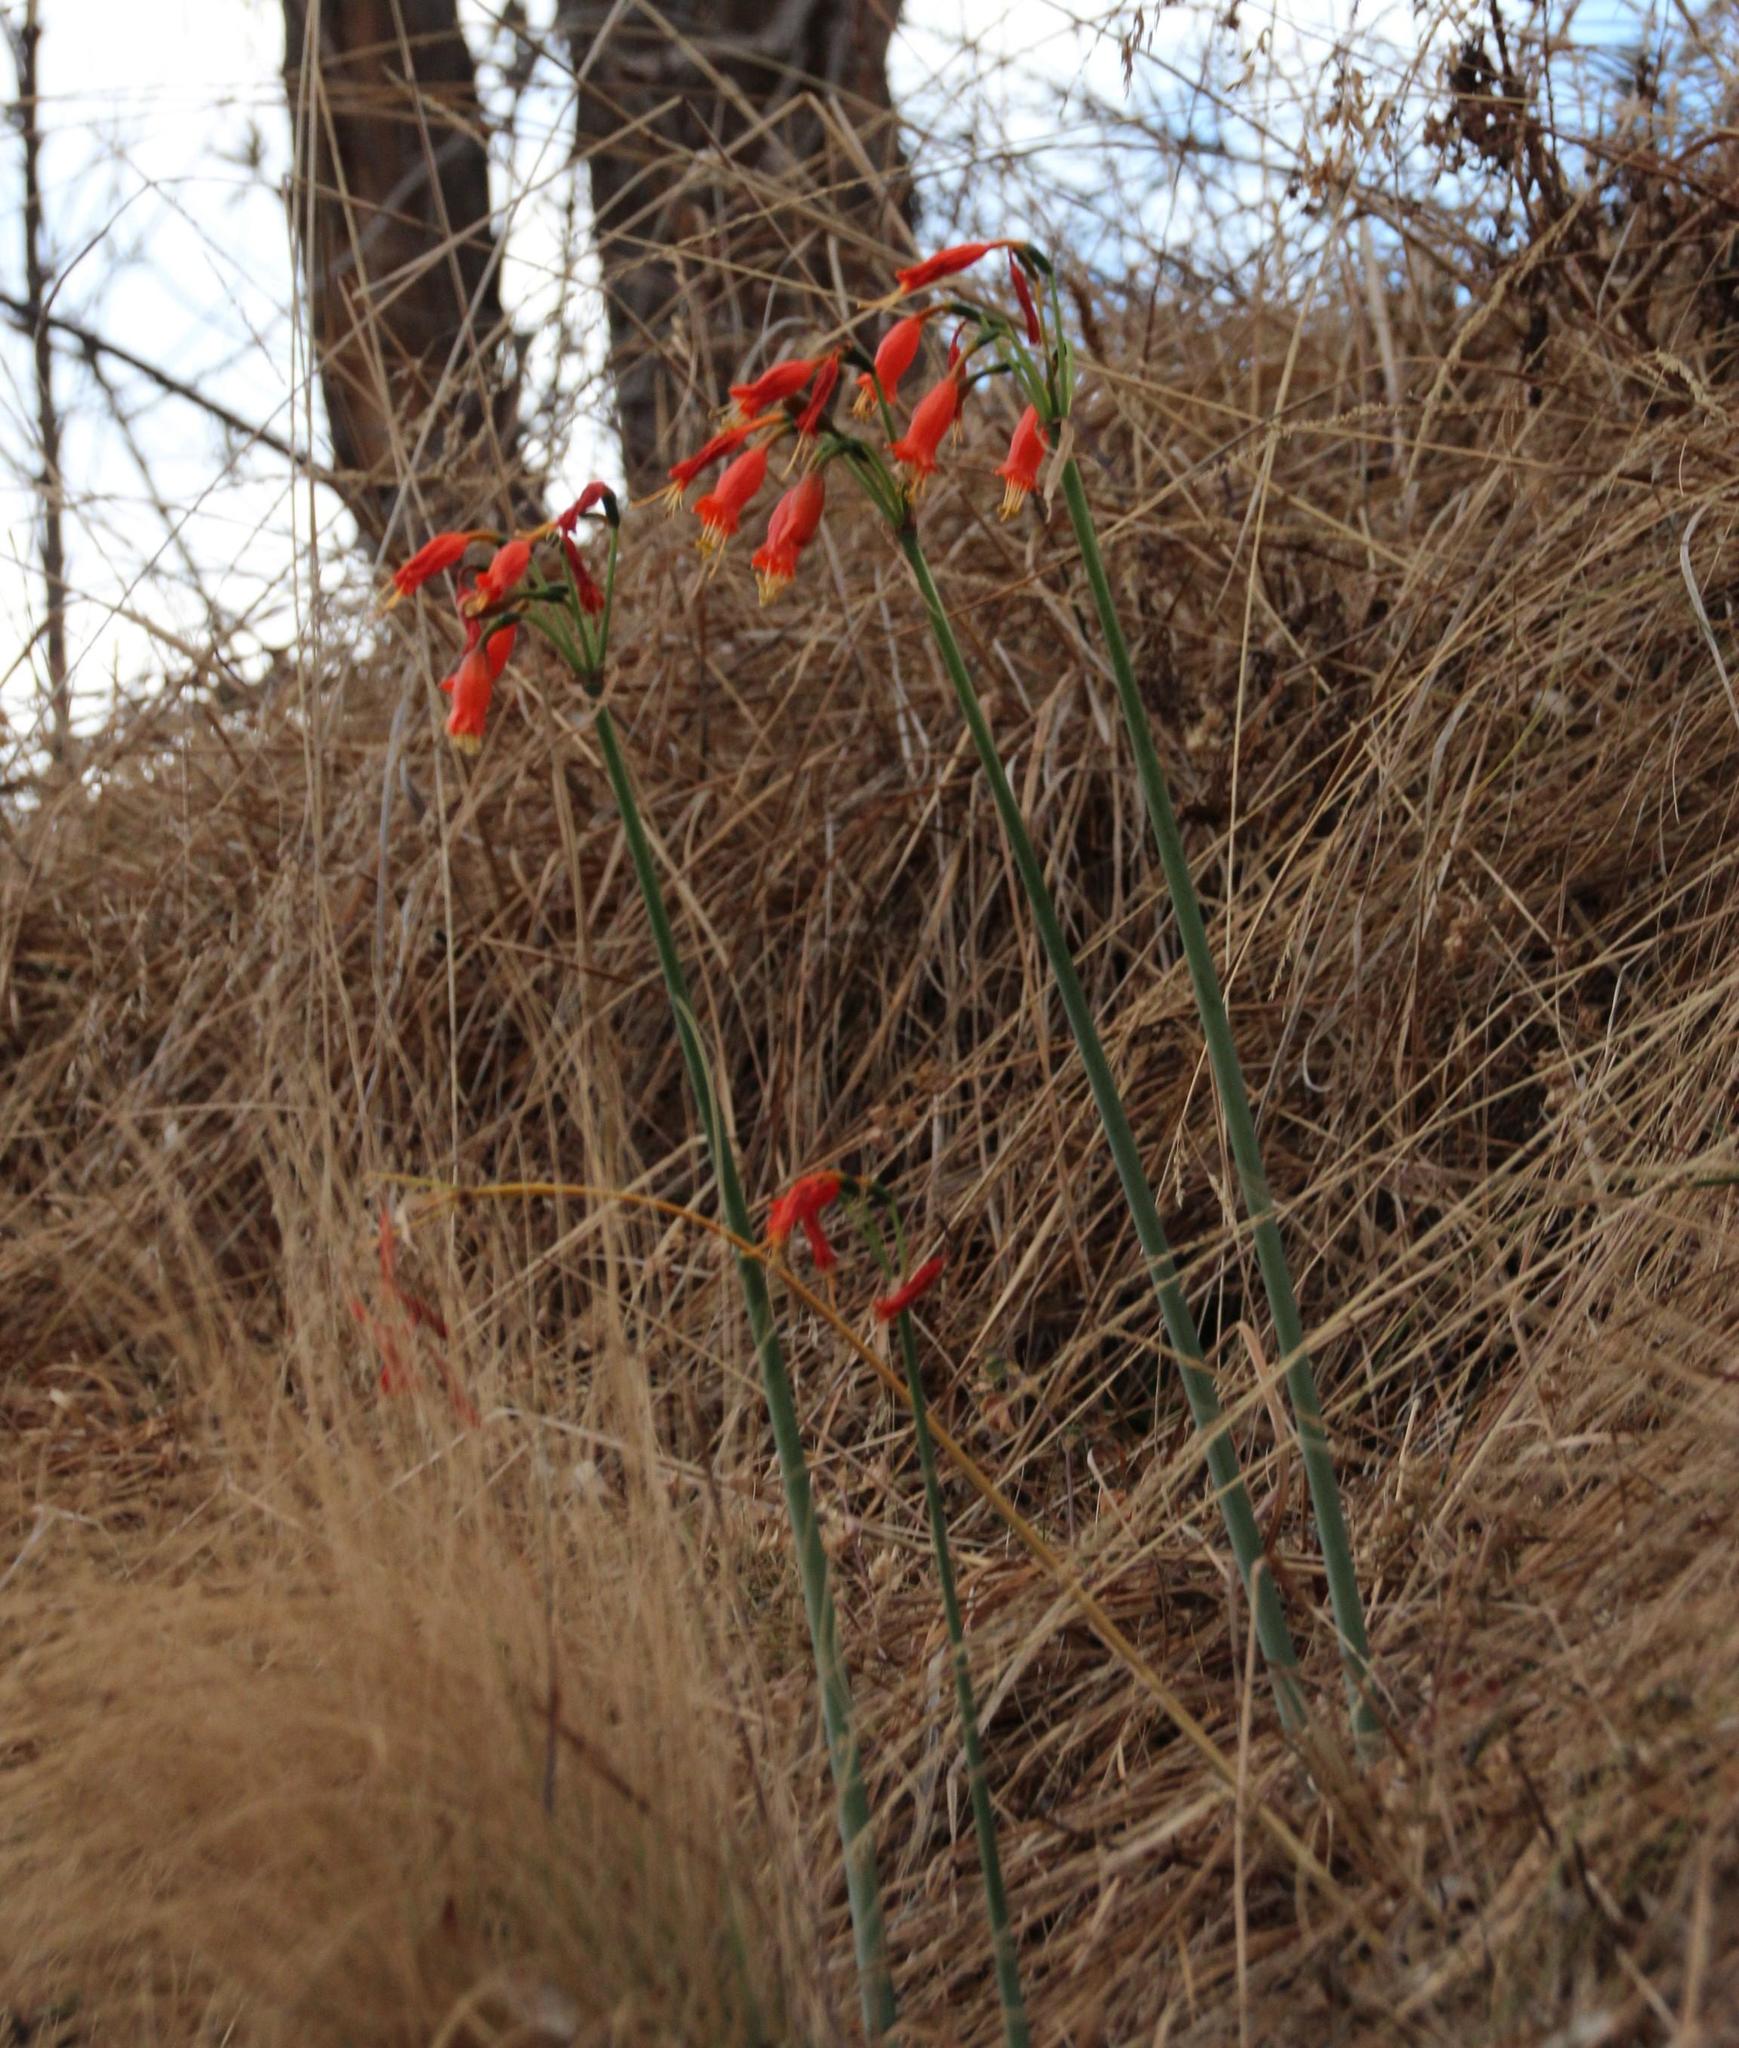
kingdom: Plantae
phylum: Tracheophyta
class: Liliopsida
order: Asparagales
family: Amaryllidaceae
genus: Stenomesson
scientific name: Stenomesson miniatum
